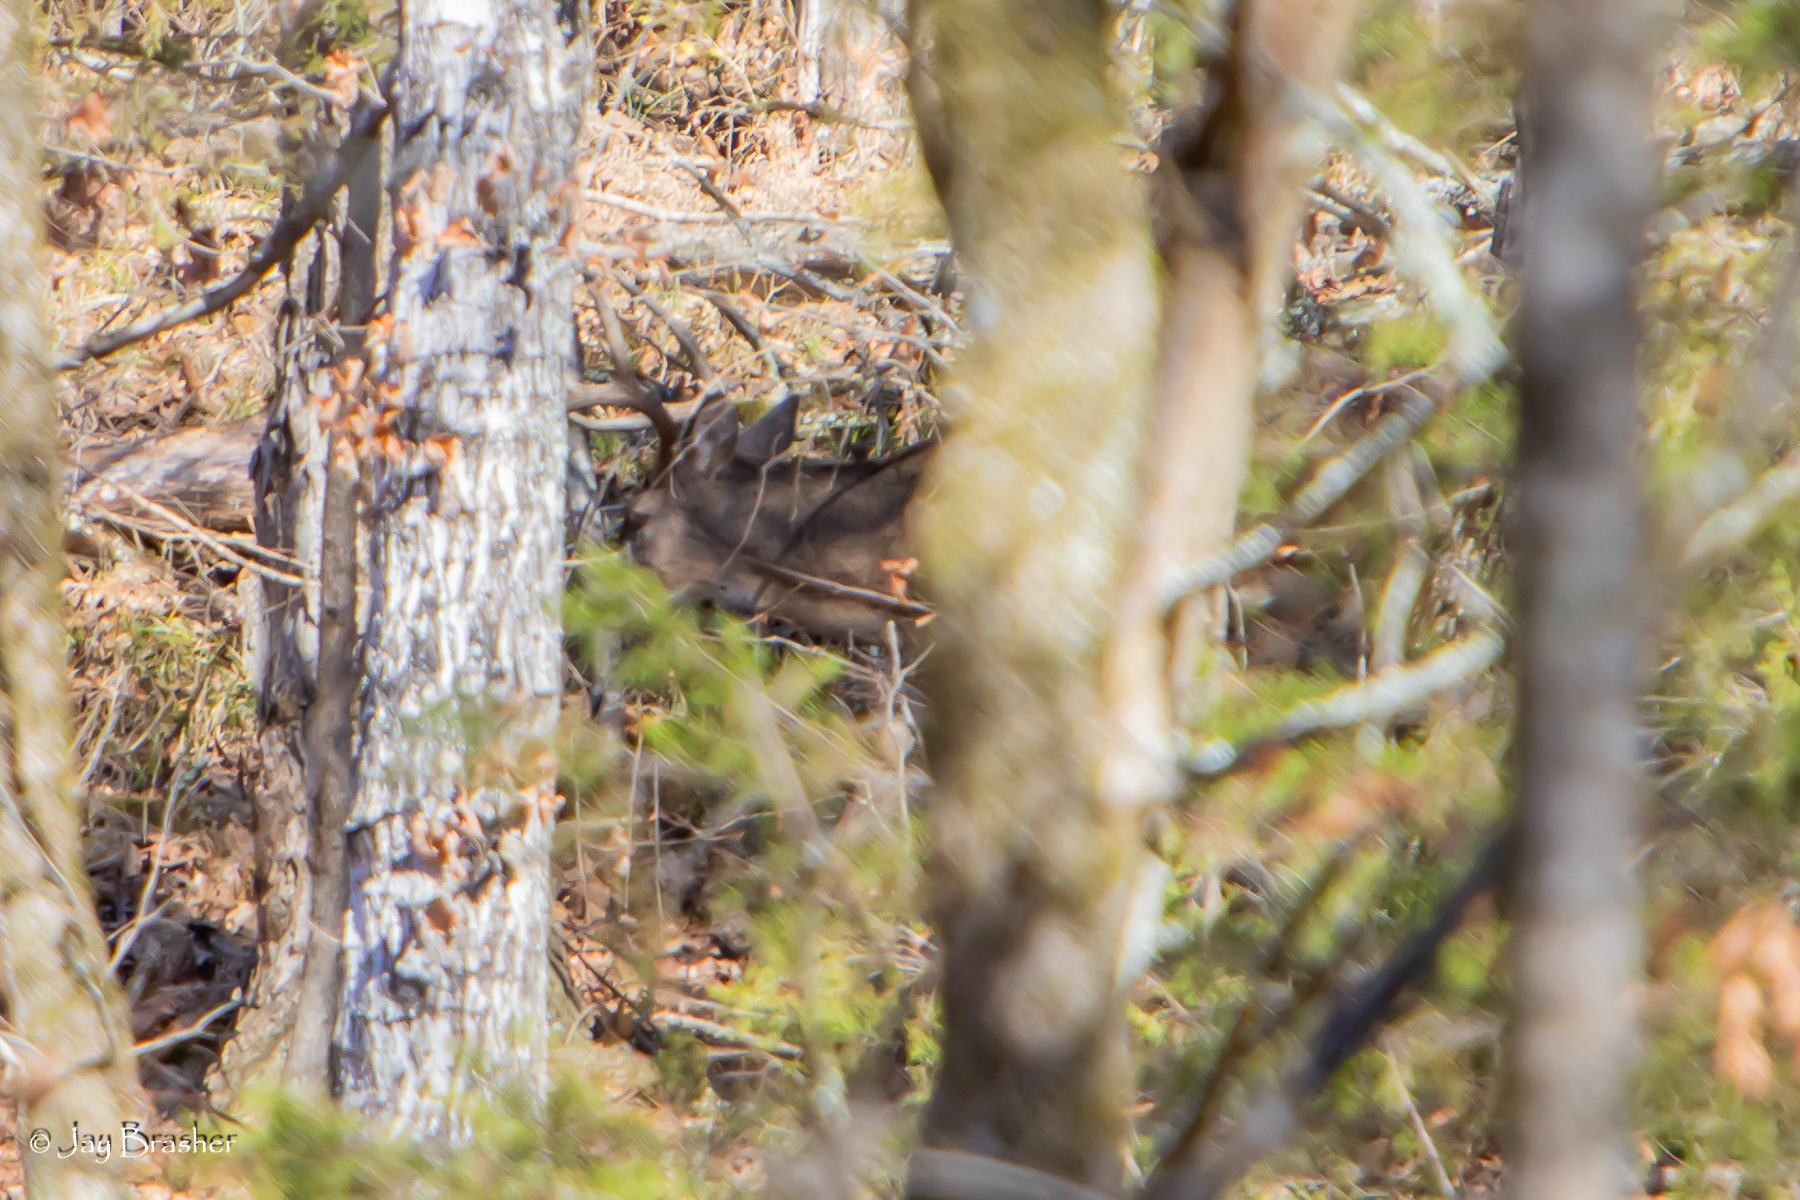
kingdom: Animalia
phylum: Chordata
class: Mammalia
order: Artiodactyla
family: Cervidae
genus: Odocoileus
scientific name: Odocoileus virginianus
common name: White-tailed deer
